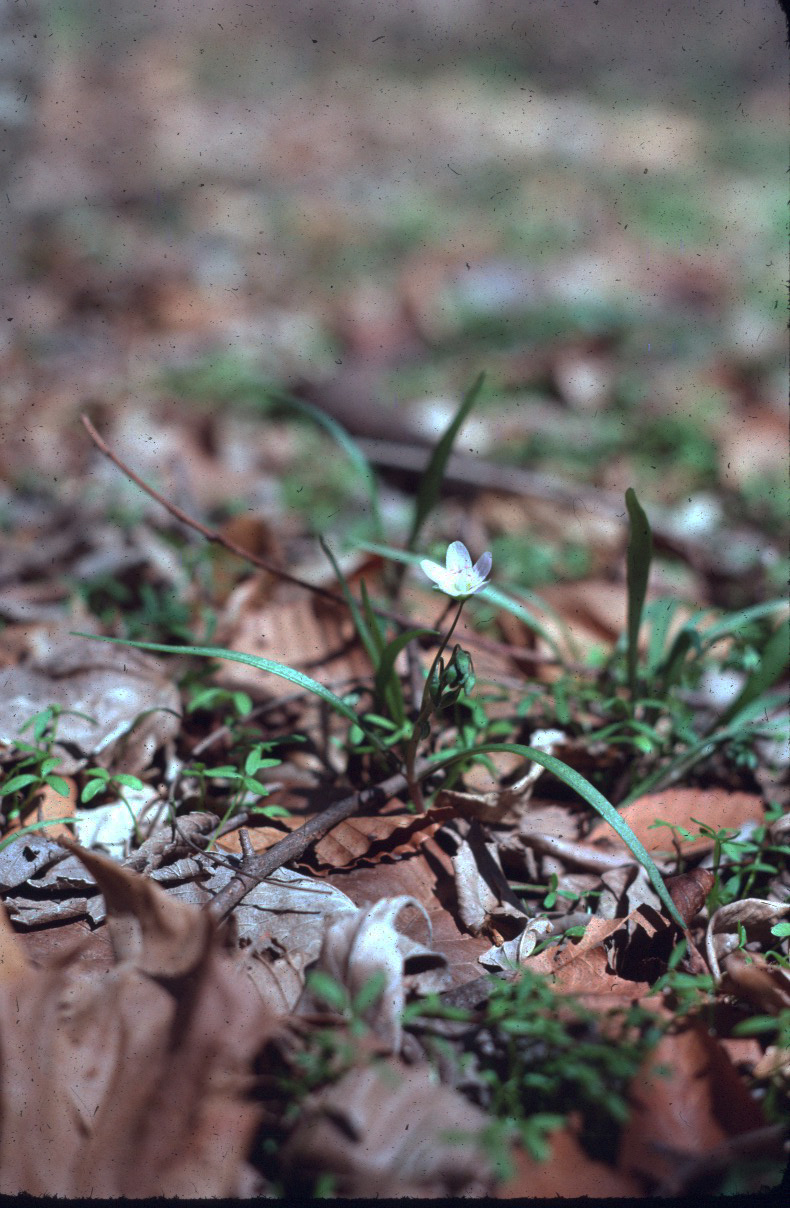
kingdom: Plantae
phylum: Tracheophyta
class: Magnoliopsida
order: Caryophyllales
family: Montiaceae
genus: Claytonia
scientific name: Claytonia virginica
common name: Virginia springbeauty
